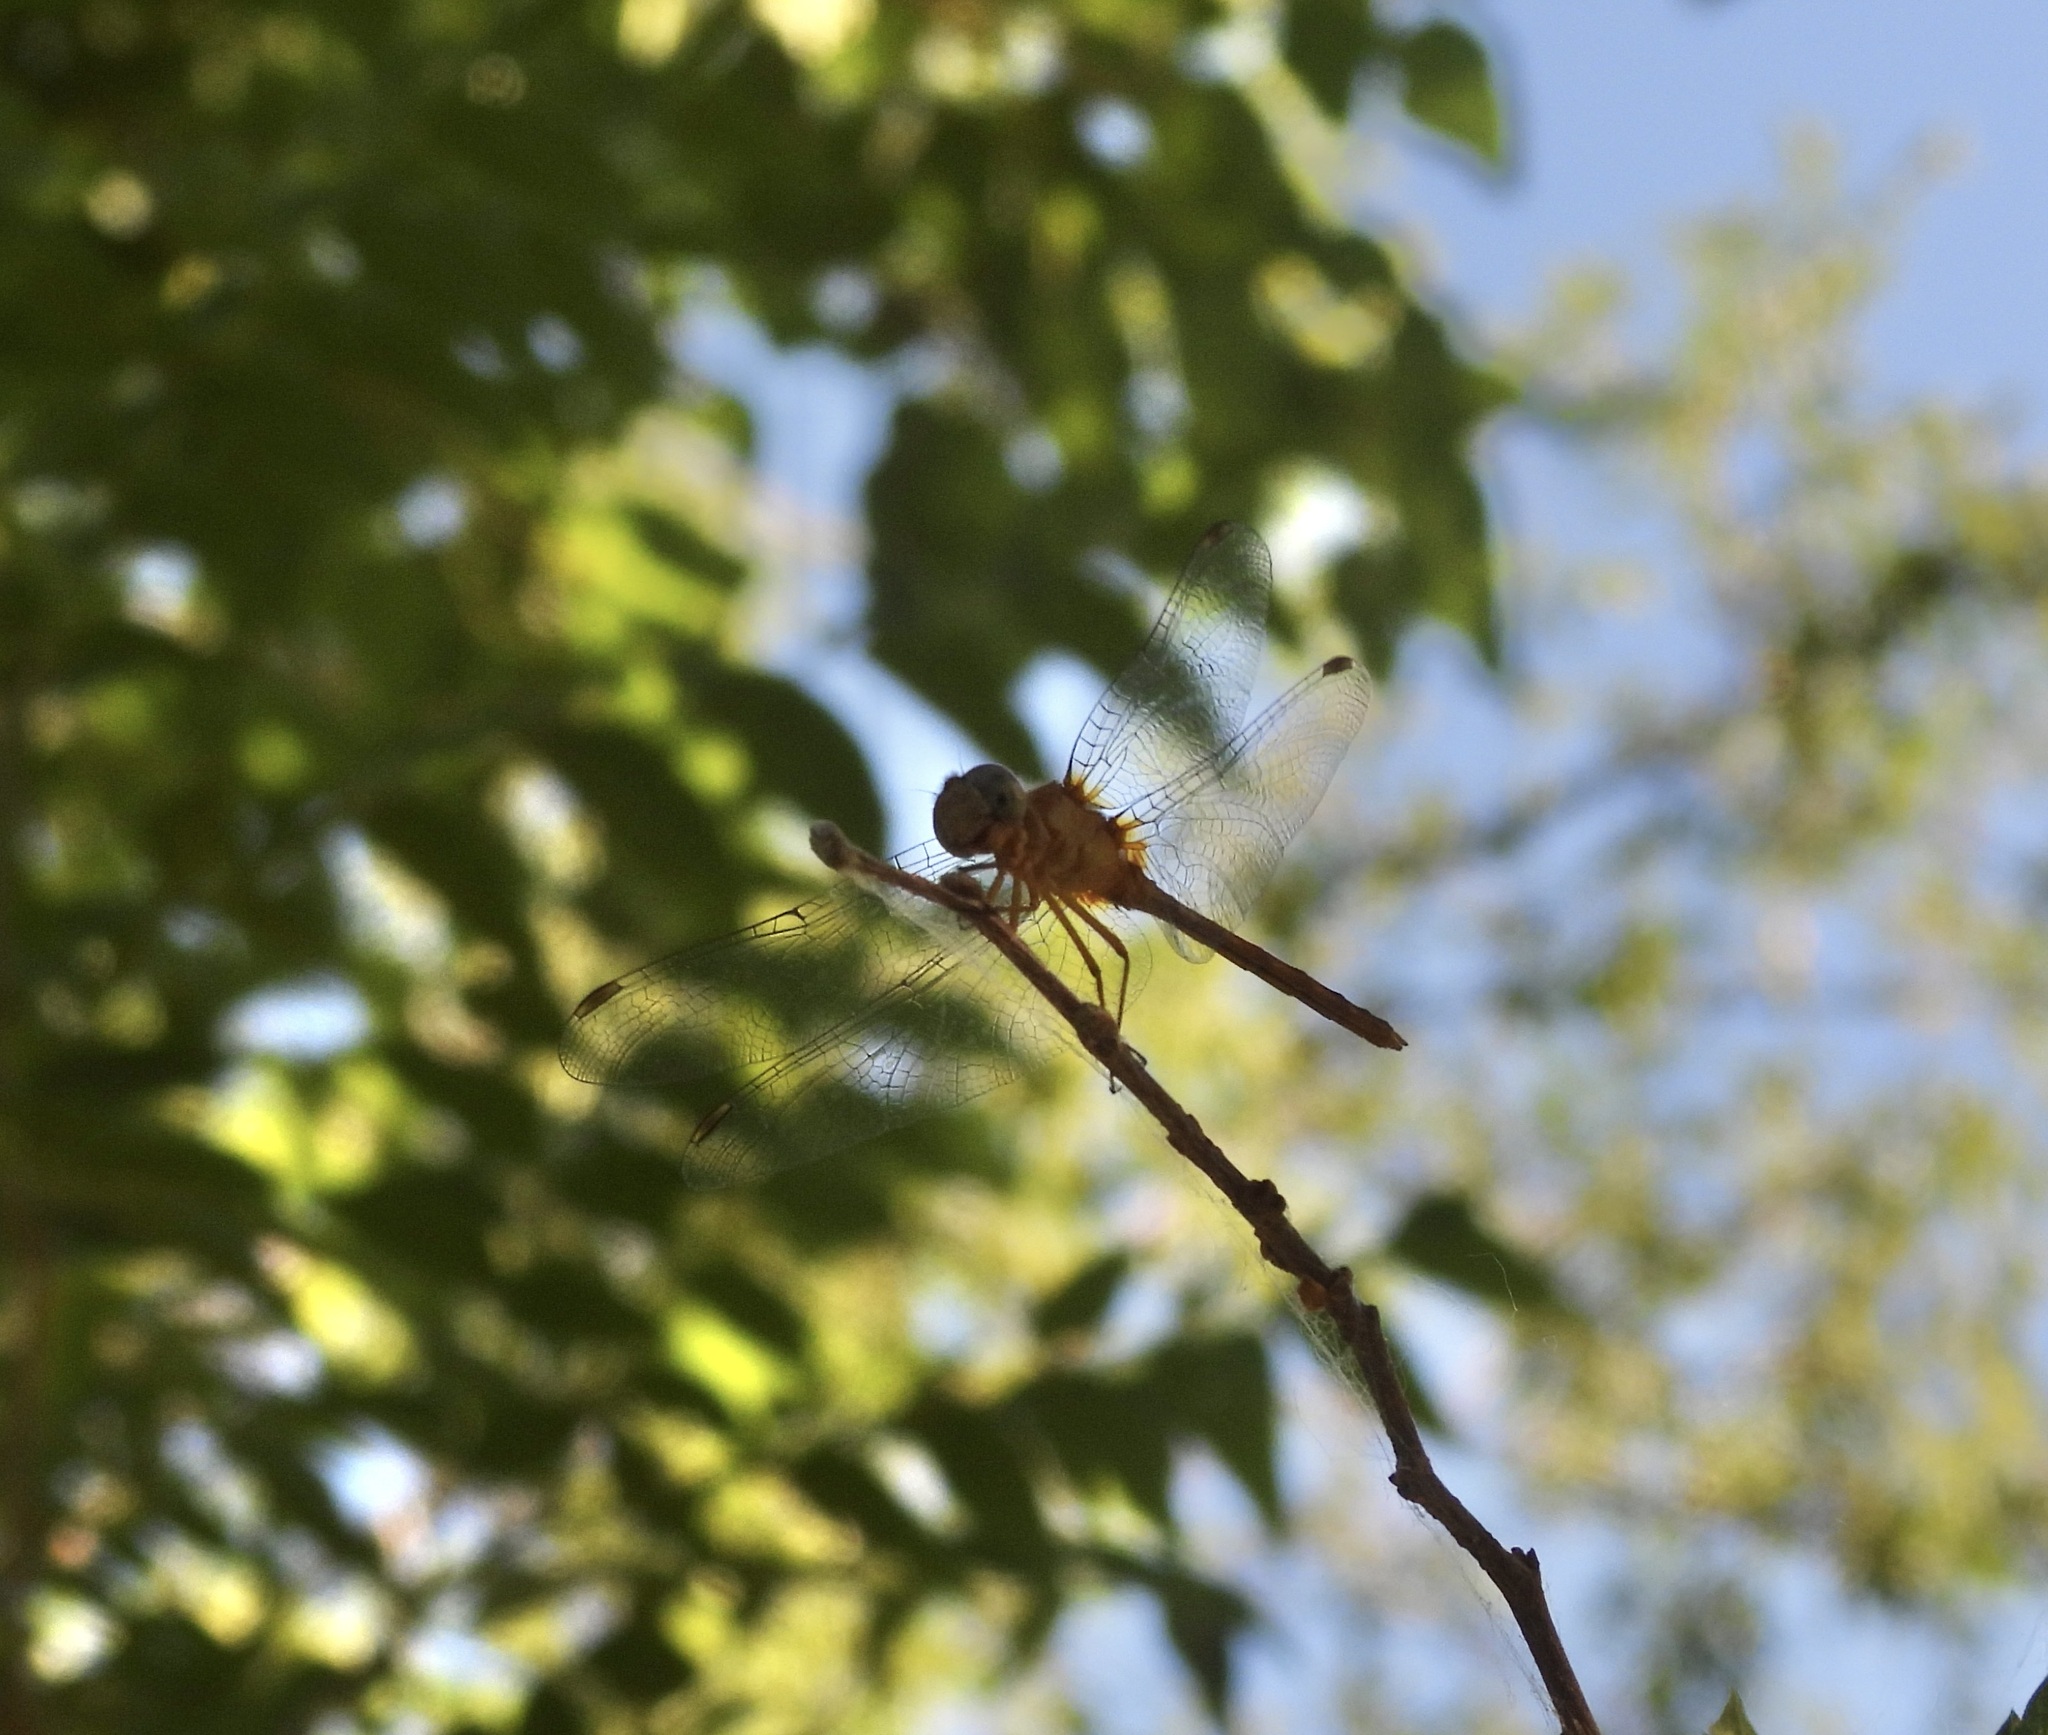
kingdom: Animalia
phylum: Arthropoda
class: Insecta
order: Odonata
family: Libellulidae
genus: Sympetrum
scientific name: Sympetrum vicinum
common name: Autumn meadowhawk
